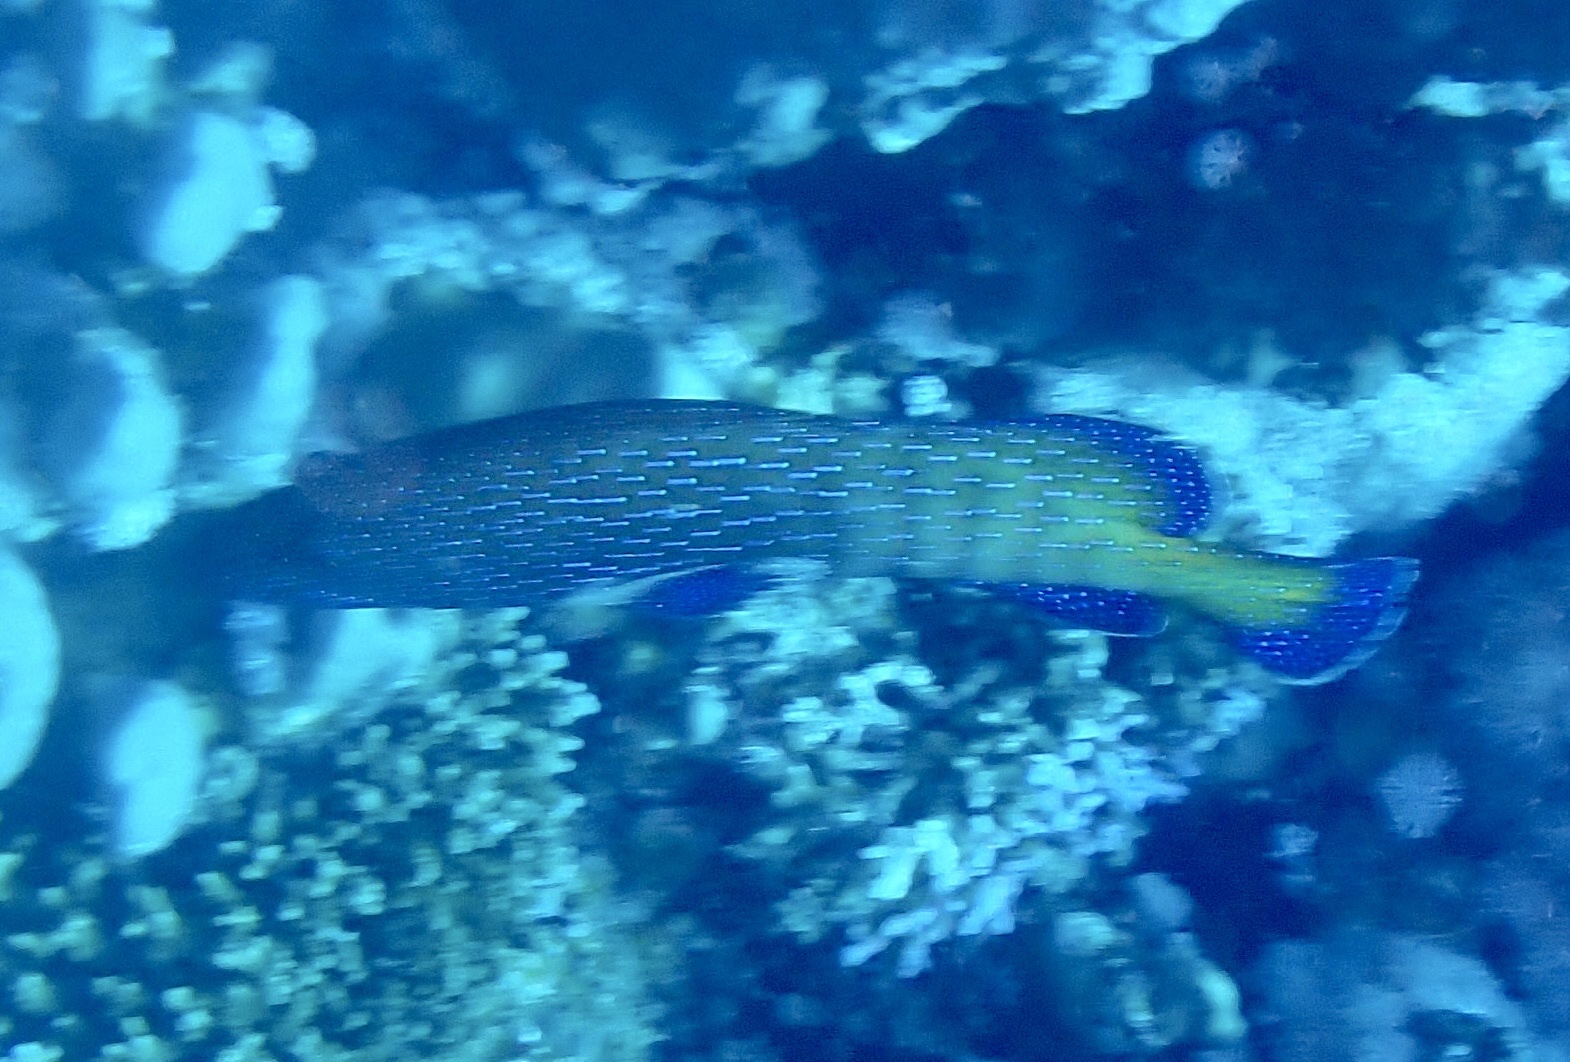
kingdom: Animalia
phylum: Chordata
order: Perciformes
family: Serranidae
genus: Cephalopholis
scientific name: Cephalopholis argus
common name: Peacock grouper
